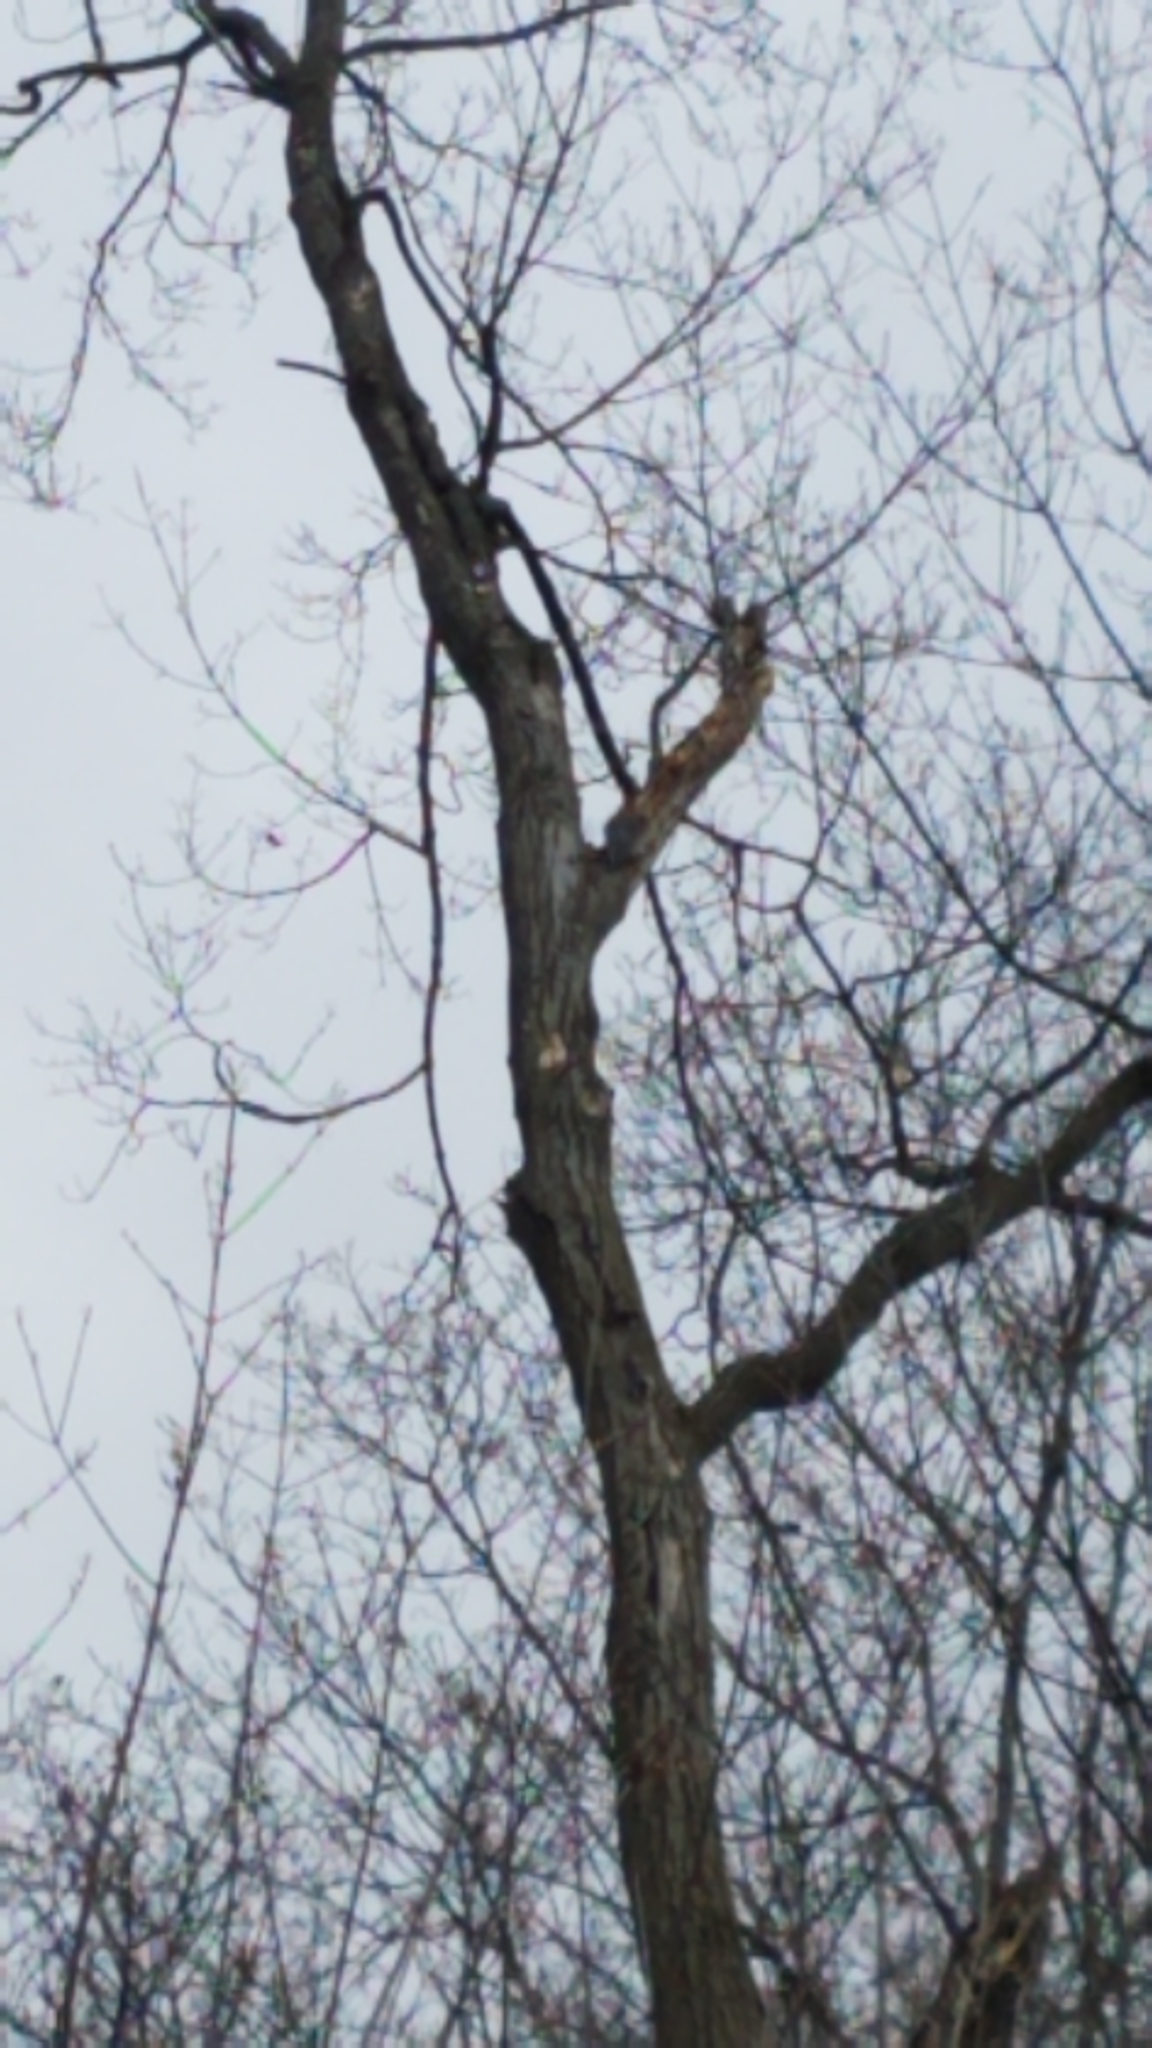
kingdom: Animalia
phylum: Chordata
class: Aves
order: Piciformes
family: Picidae
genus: Melanerpes
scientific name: Melanerpes carolinus
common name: Red-bellied woodpecker
